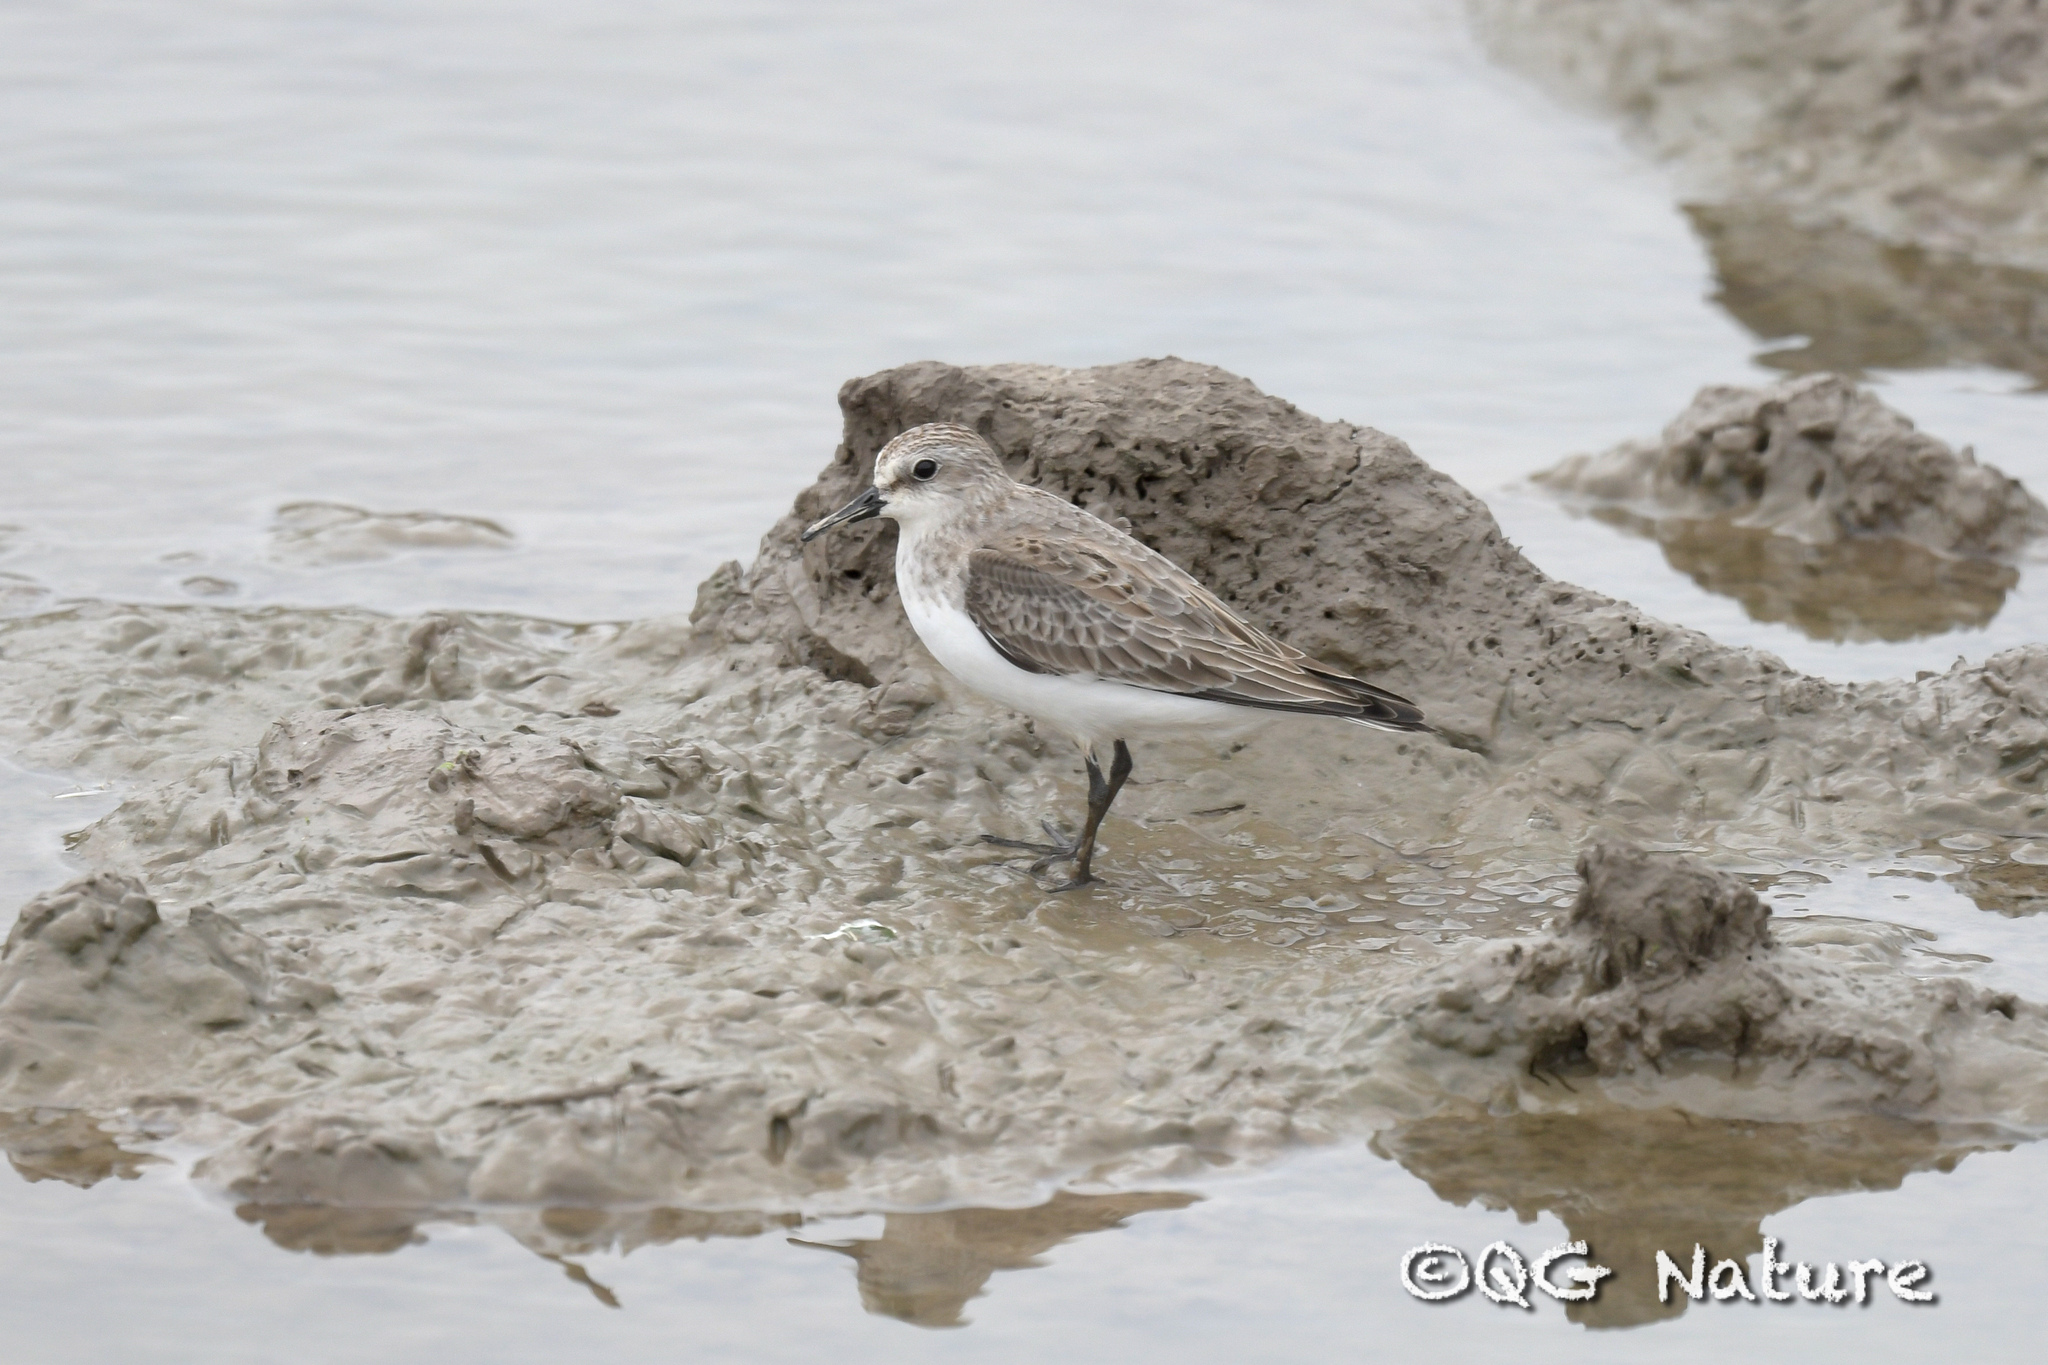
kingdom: Animalia
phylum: Chordata
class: Aves
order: Charadriiformes
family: Scolopacidae
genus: Calidris
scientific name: Calidris alba
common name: Sanderling
